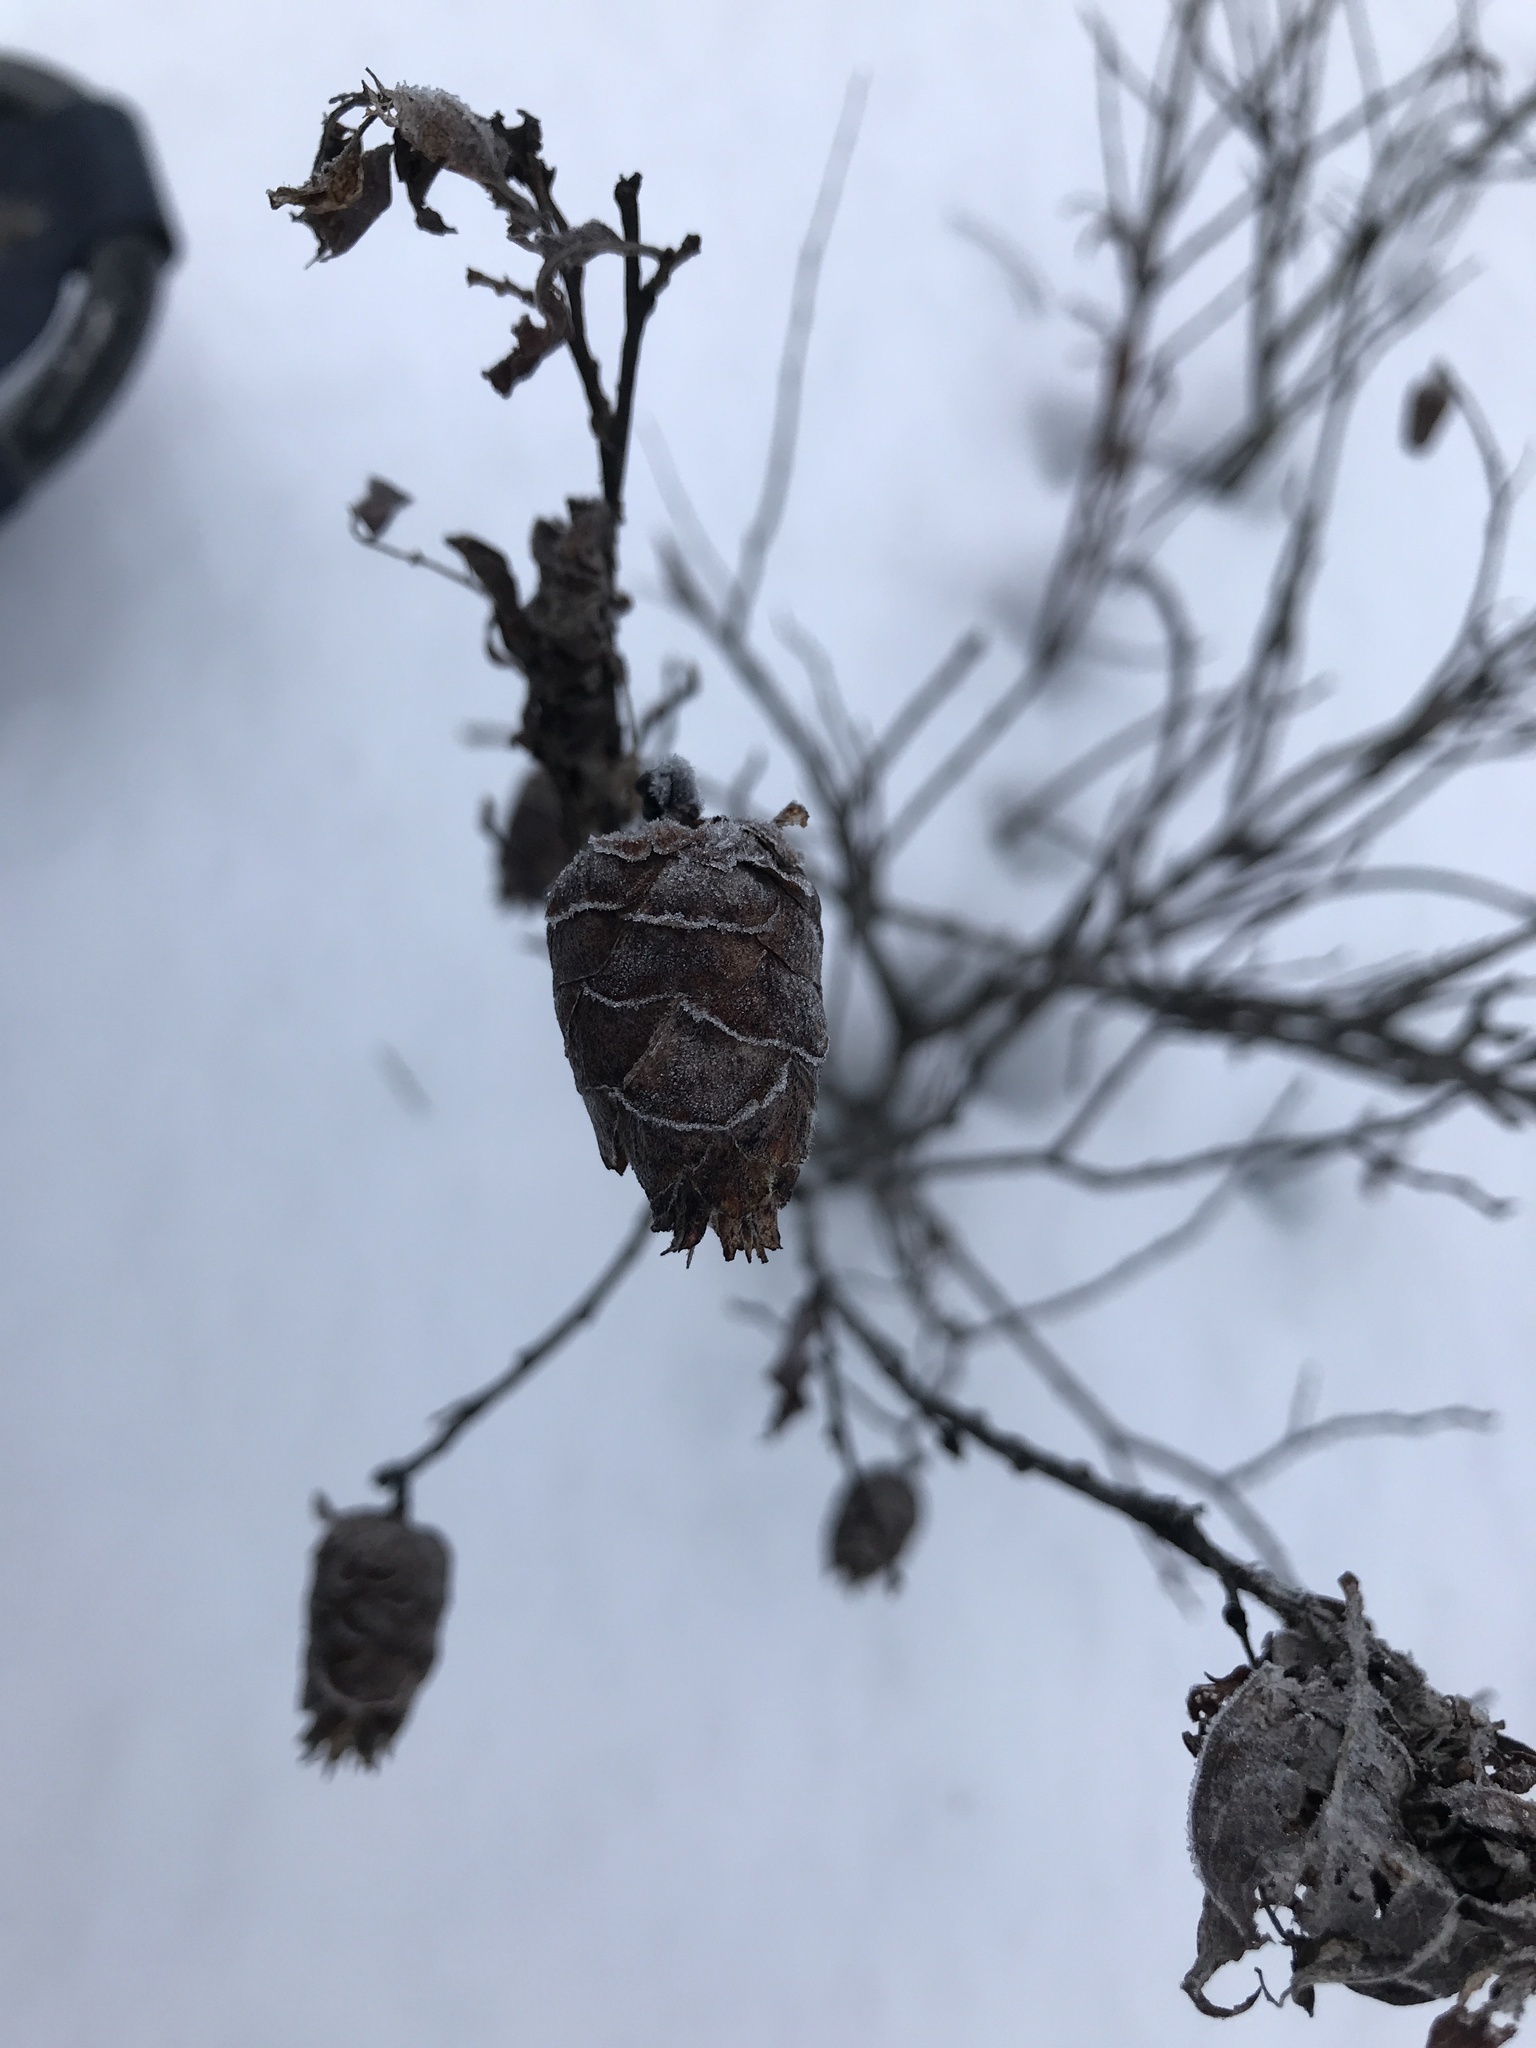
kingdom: Animalia
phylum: Arthropoda
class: Insecta
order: Diptera
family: Cecidomyiidae
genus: Rabdophaga
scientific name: Rabdophaga strobiloides
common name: Willow pinecone gall midge
